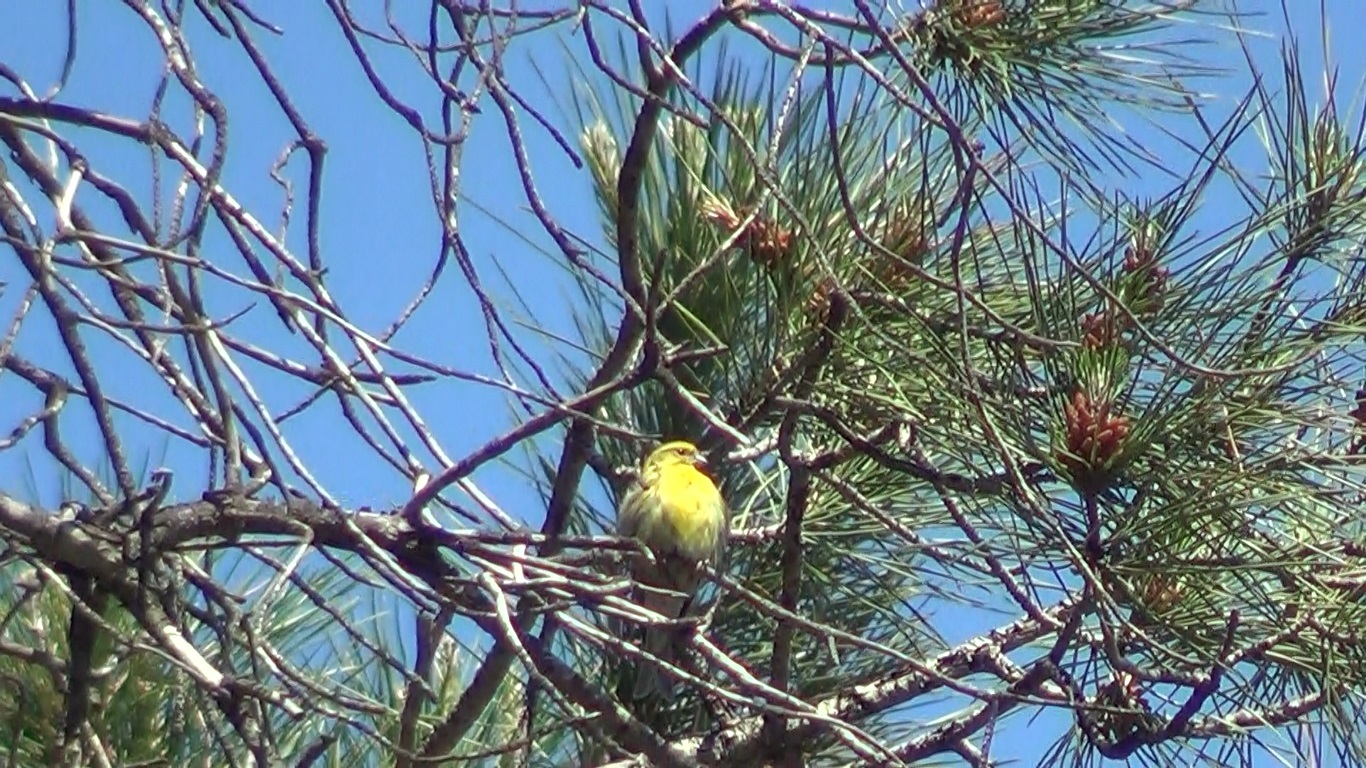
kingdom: Animalia
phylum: Chordata
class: Aves
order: Passeriformes
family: Fringillidae
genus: Serinus
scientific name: Serinus serinus
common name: European serin
